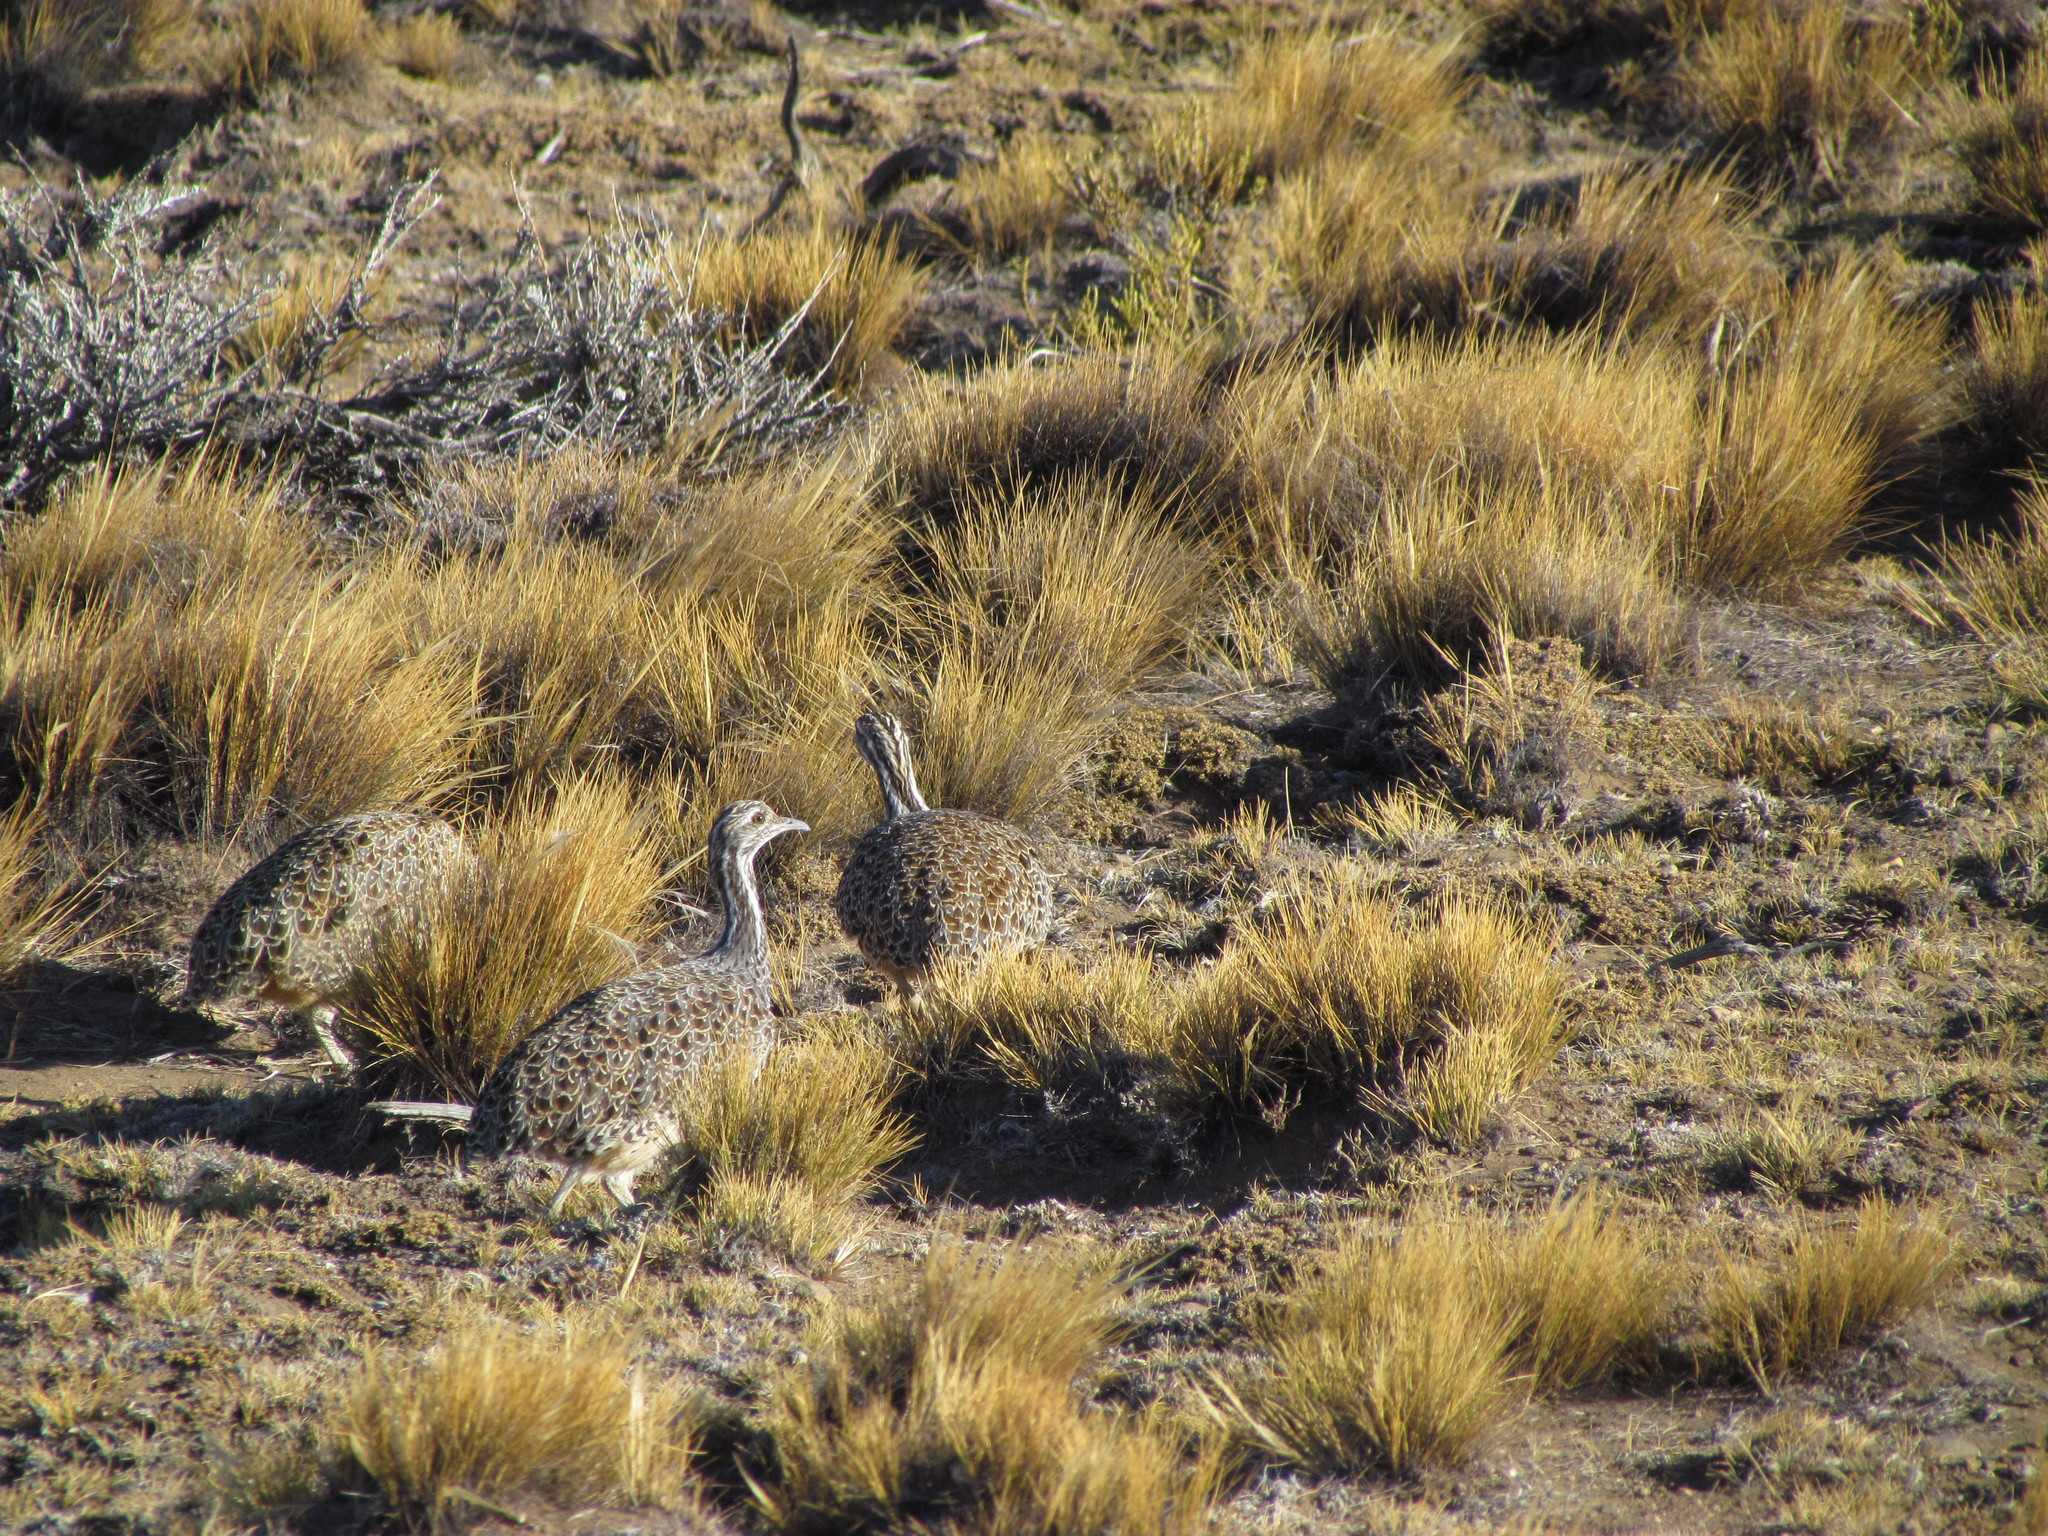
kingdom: Animalia
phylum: Chordata
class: Aves
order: Tinamiformes
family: Tinamidae
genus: Tinamotis
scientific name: Tinamotis ingoufi
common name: Patagonian tinamou
